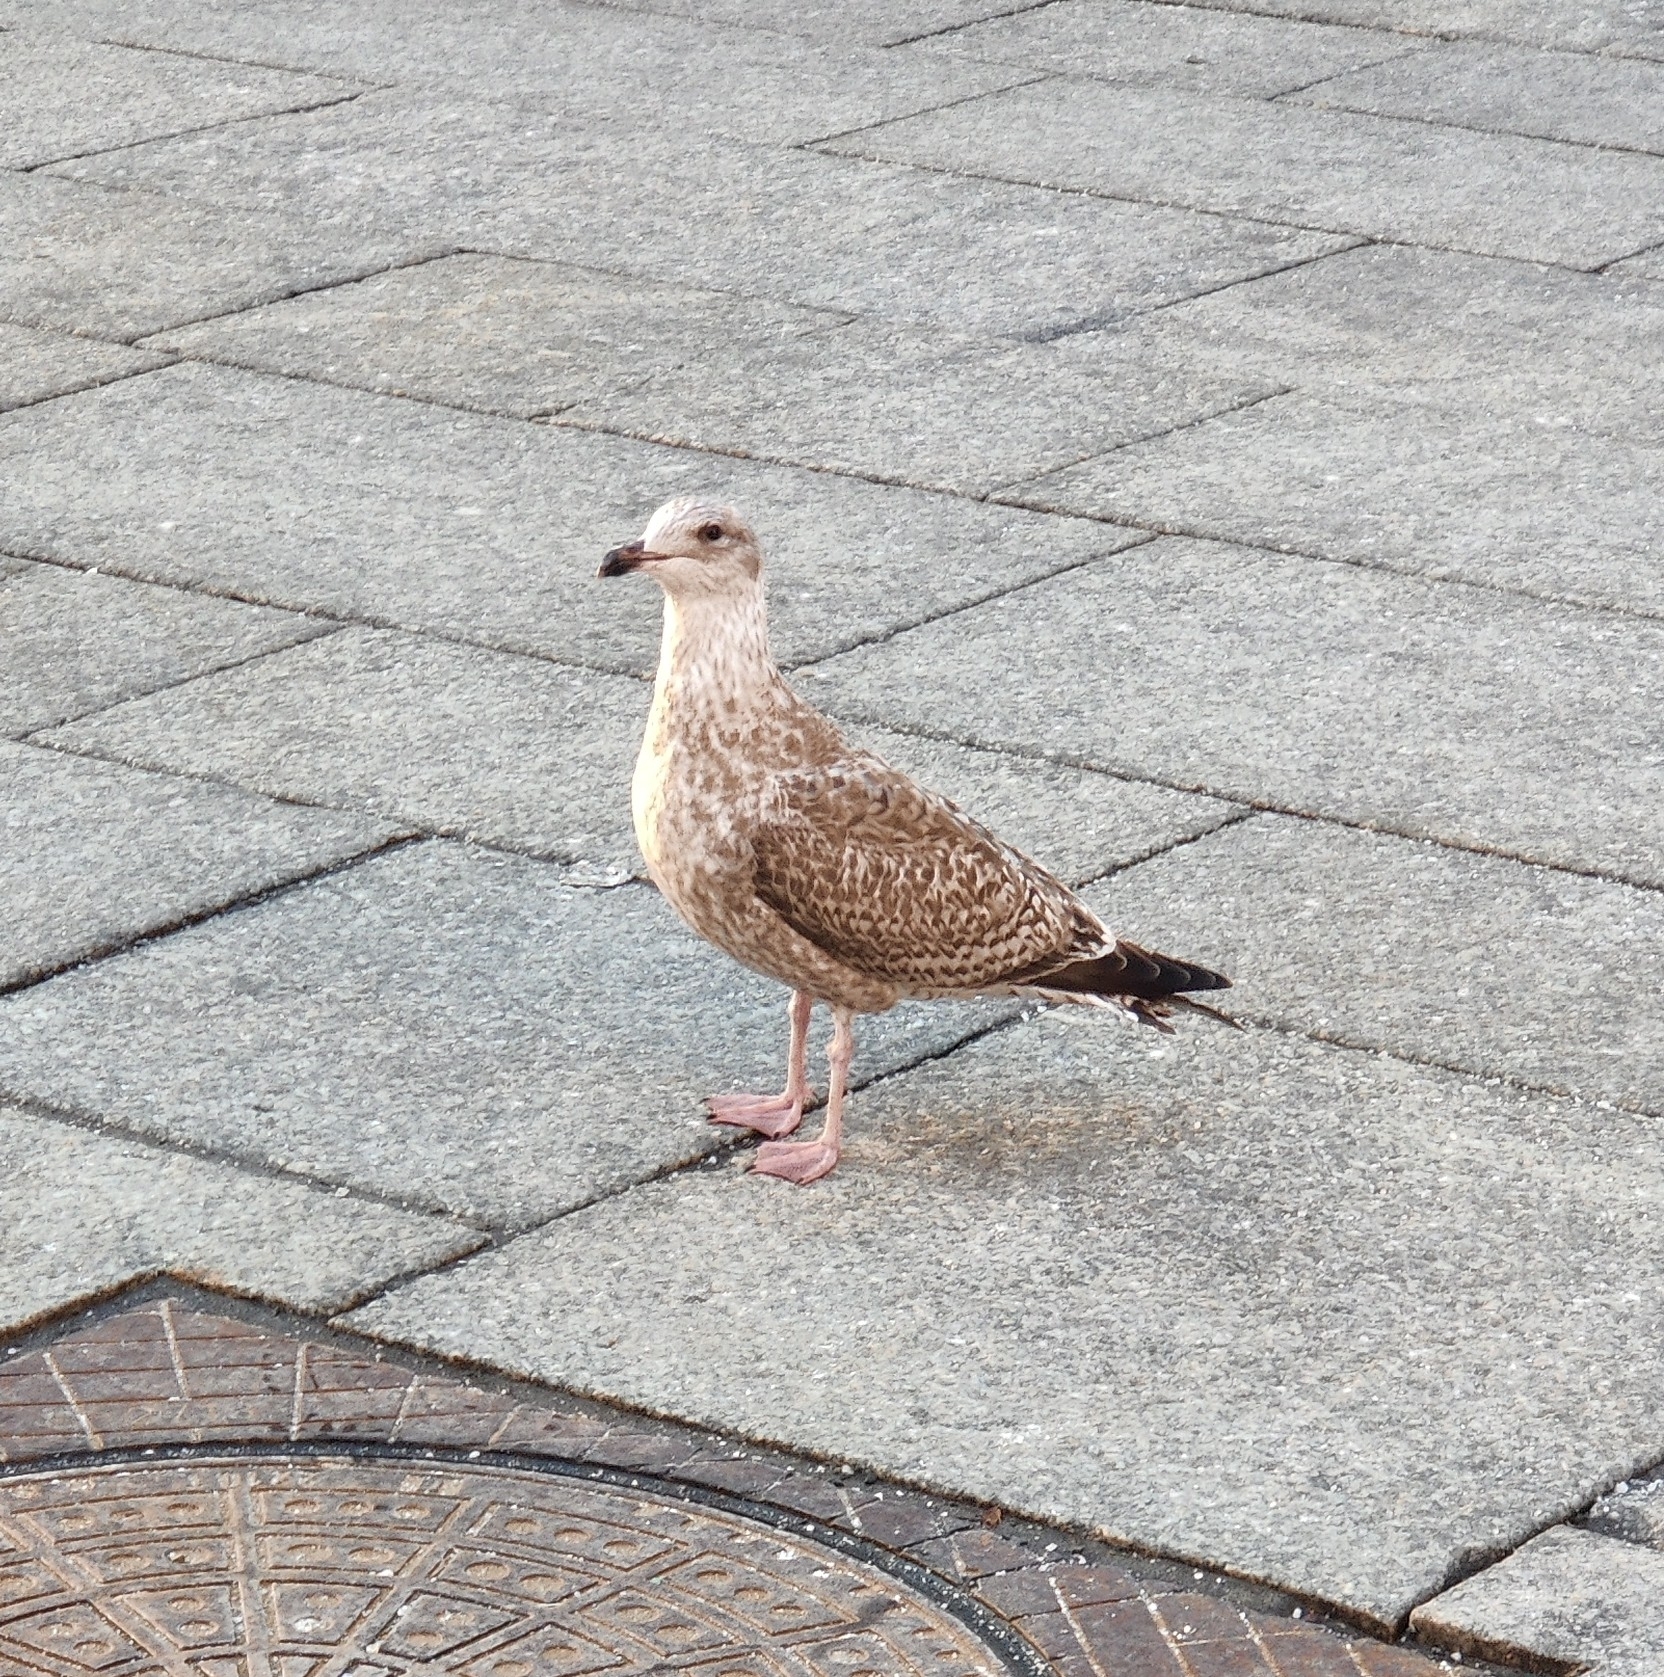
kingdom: Animalia
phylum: Chordata
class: Aves
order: Charadriiformes
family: Laridae
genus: Larus
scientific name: Larus argentatus
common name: Herring gull
